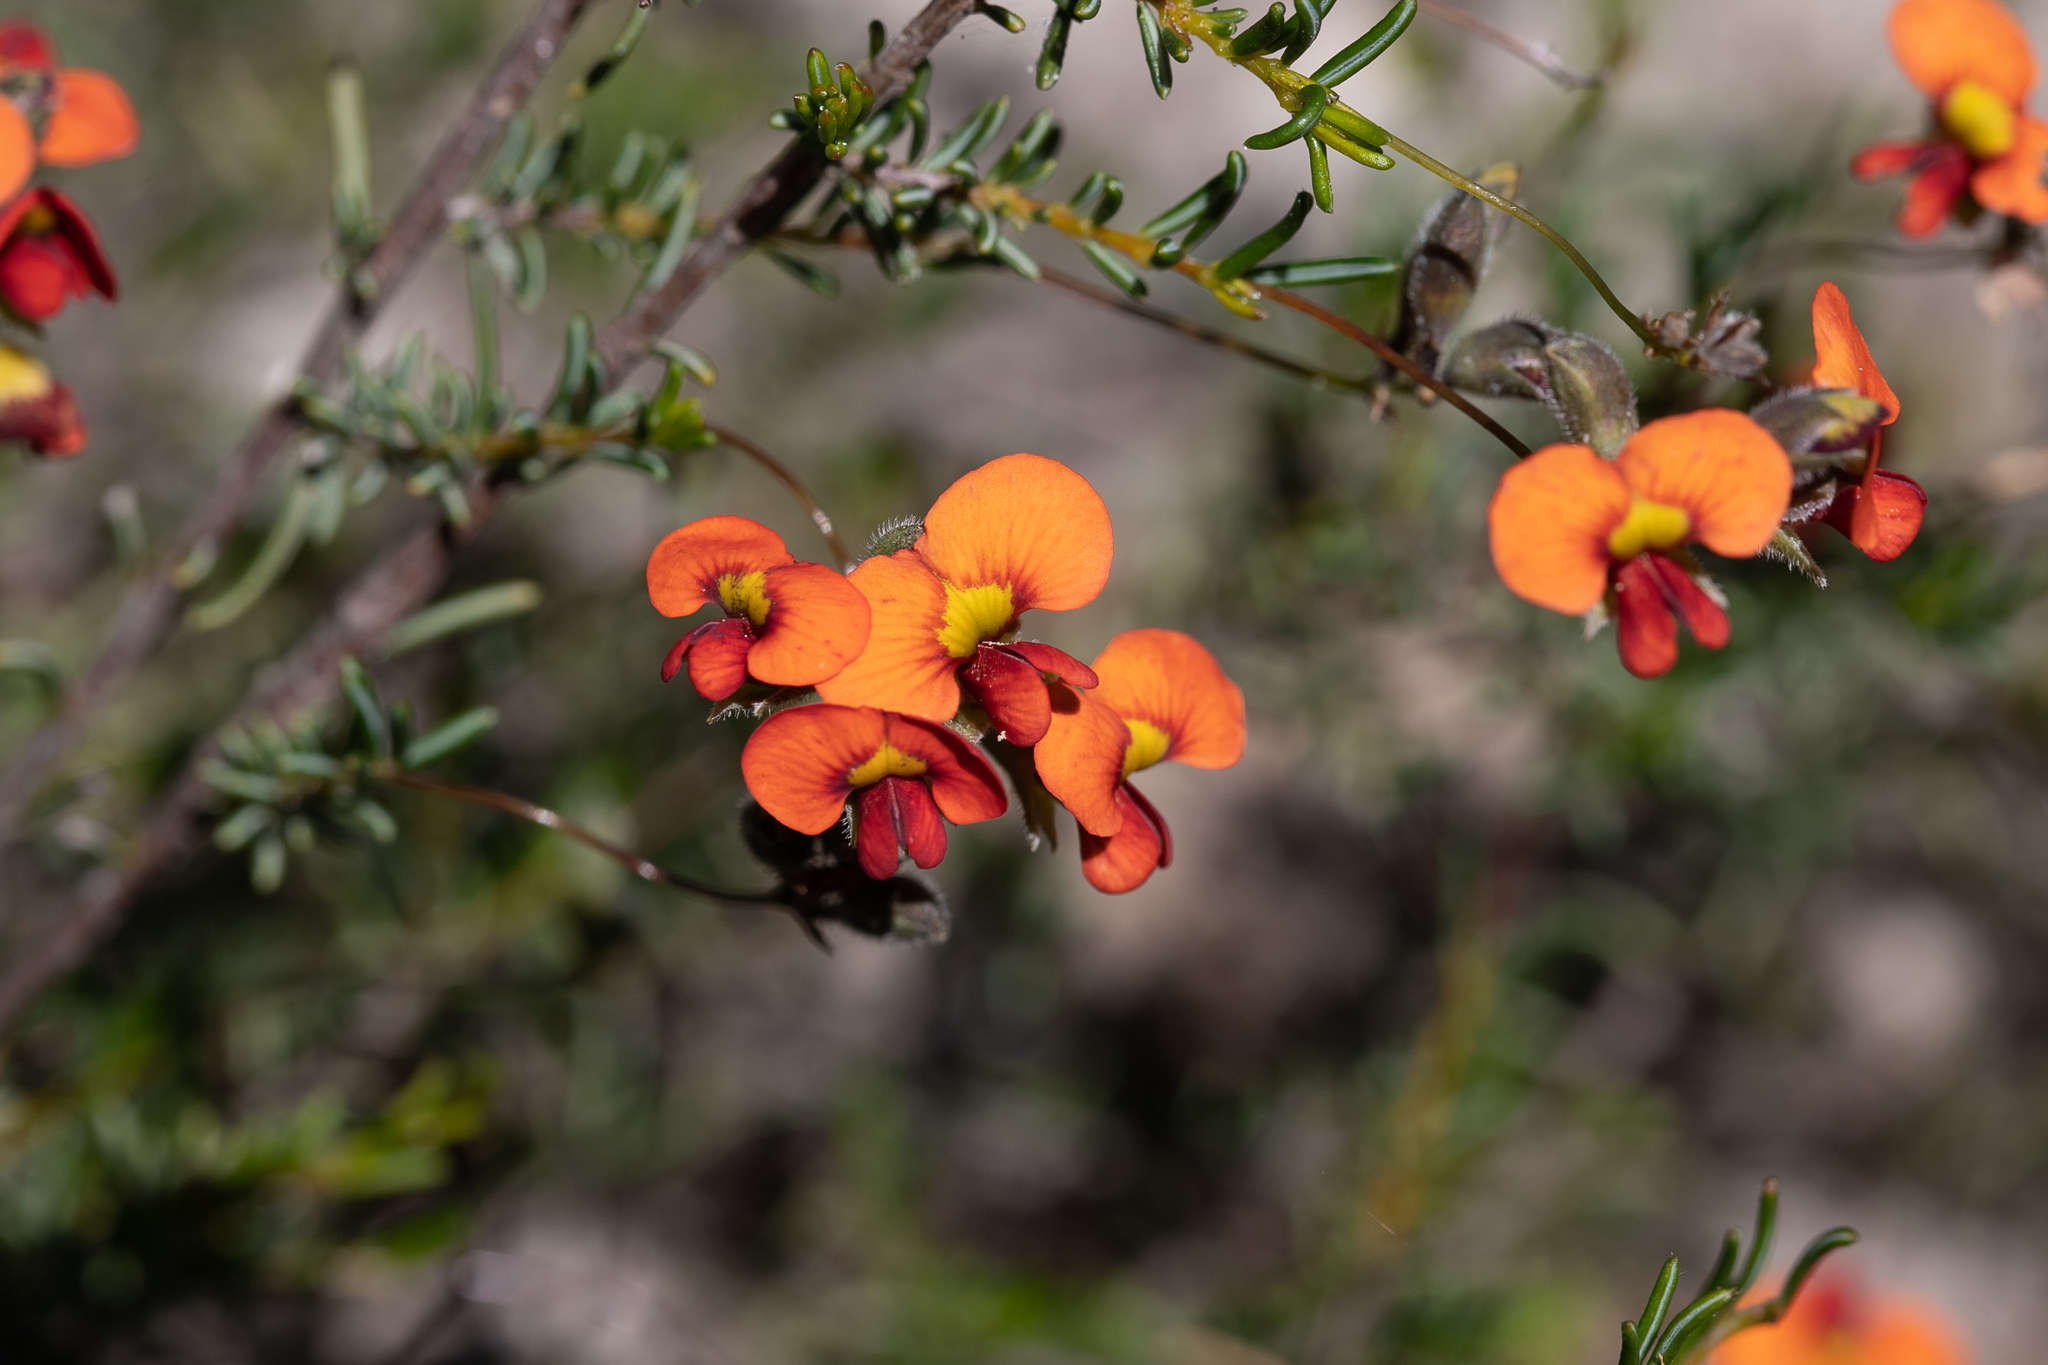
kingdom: Plantae
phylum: Tracheophyta
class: Magnoliopsida
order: Fabales
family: Fabaceae
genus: Dillwynia
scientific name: Dillwynia hispida
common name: Red parrot-pea
